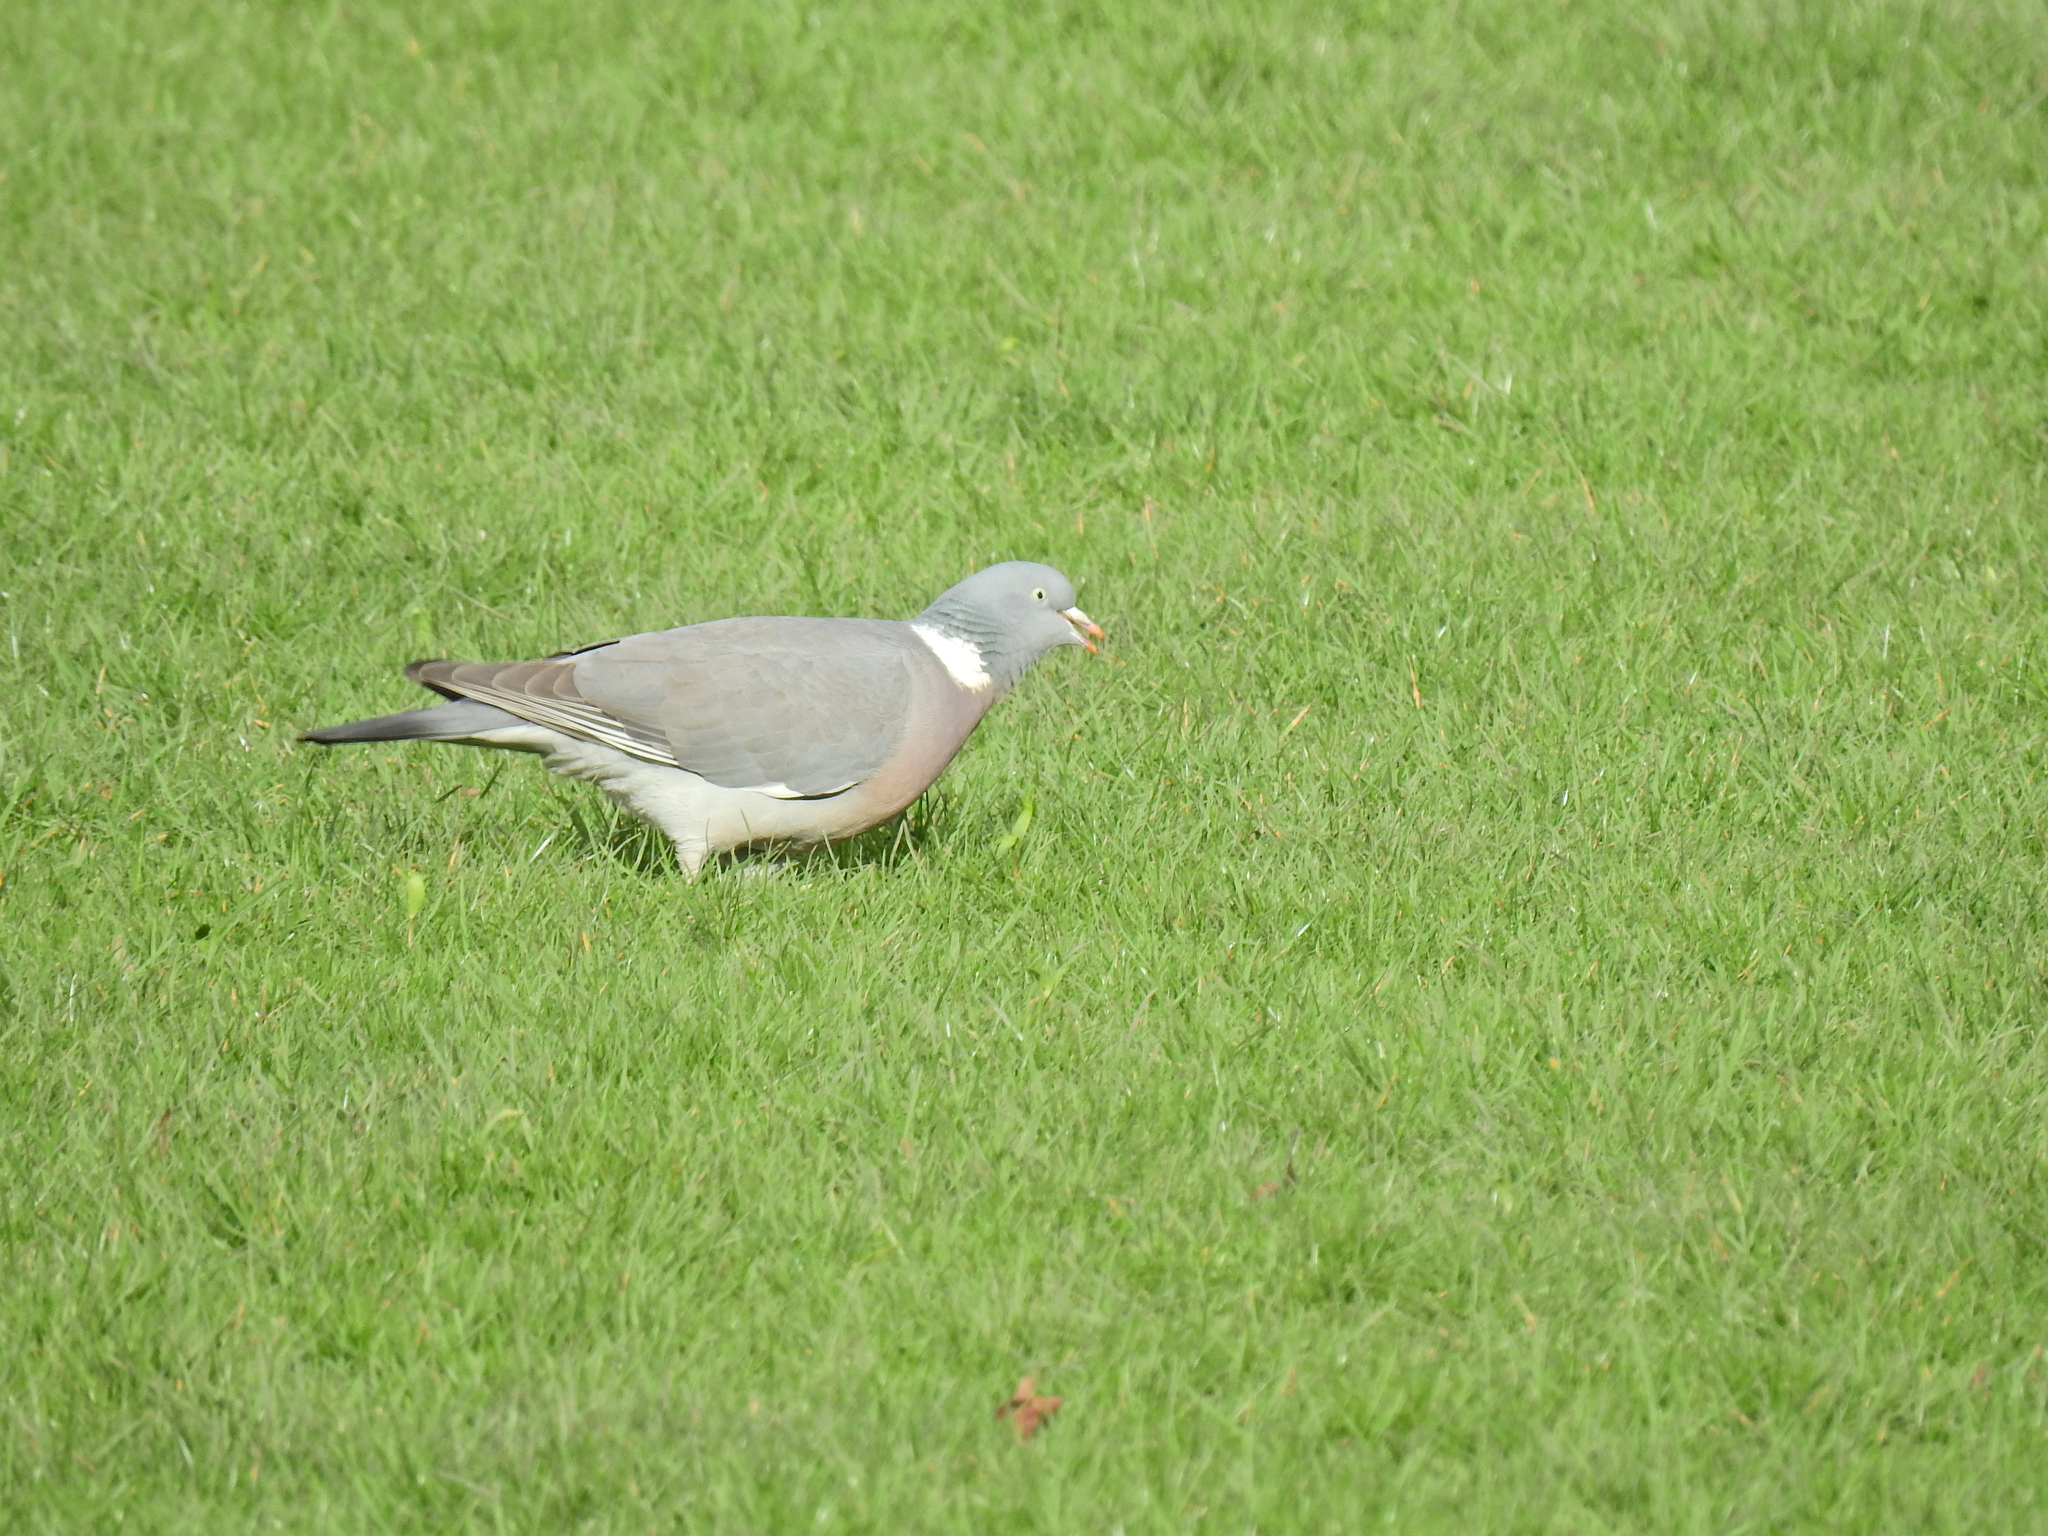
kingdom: Animalia
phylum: Chordata
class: Aves
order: Columbiformes
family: Columbidae
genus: Columba
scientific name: Columba palumbus
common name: Common wood pigeon
